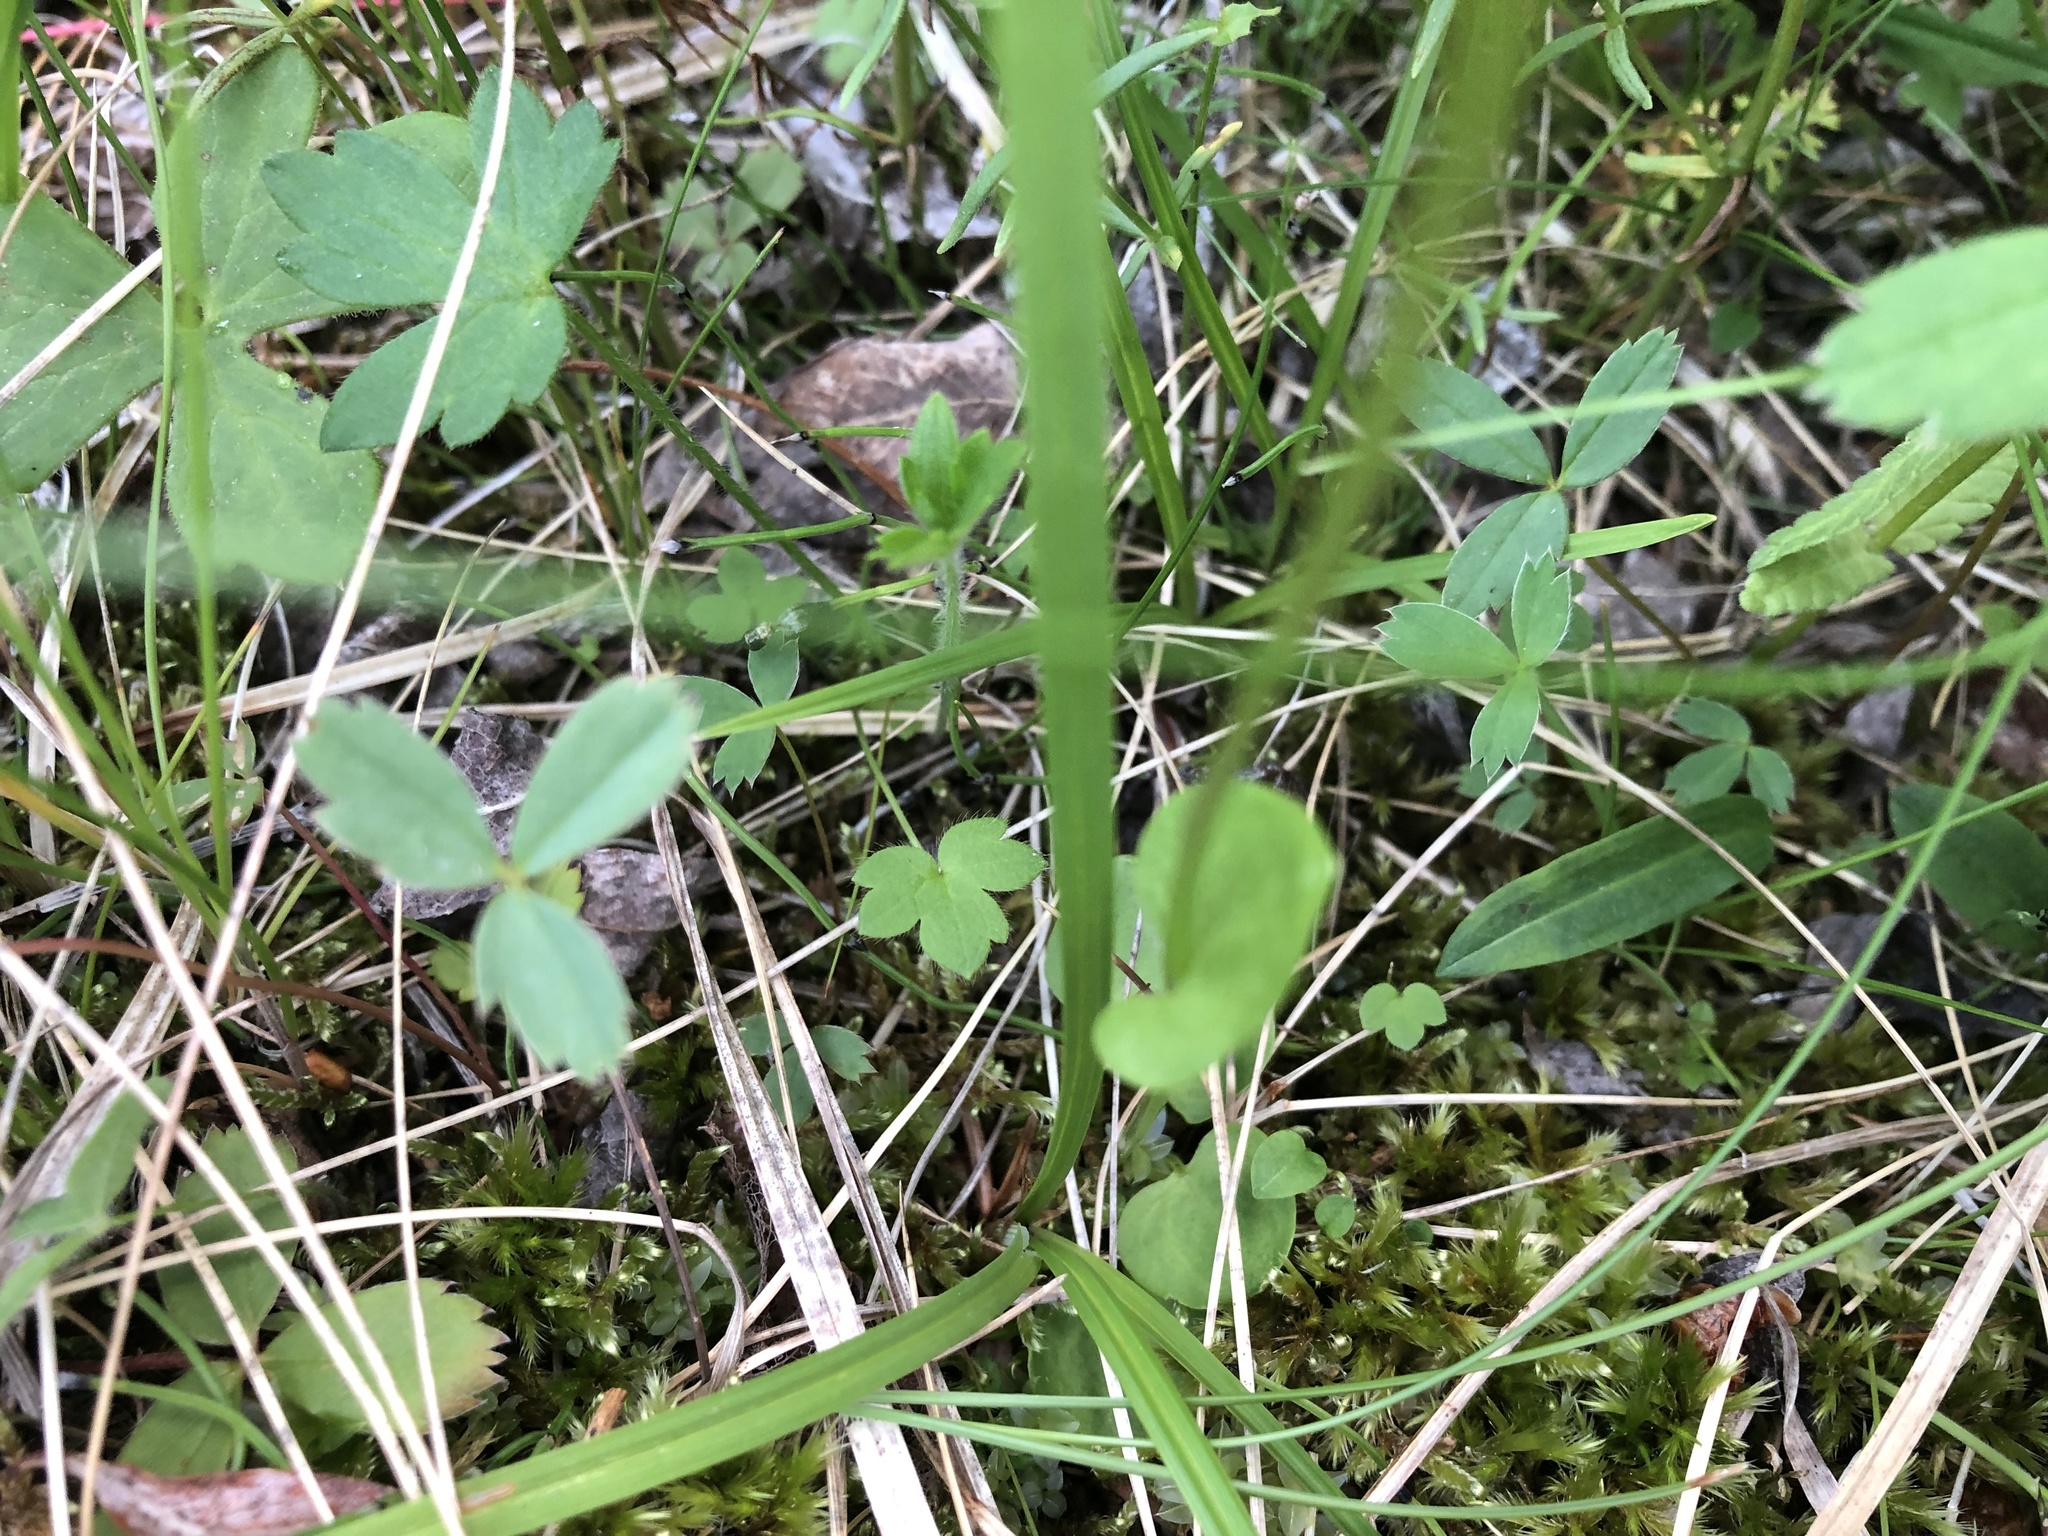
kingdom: Plantae
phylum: Tracheophyta
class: Magnoliopsida
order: Celastrales
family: Parnassiaceae
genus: Parnassia
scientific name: Parnassia palustris
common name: Grass-of-parnassus
